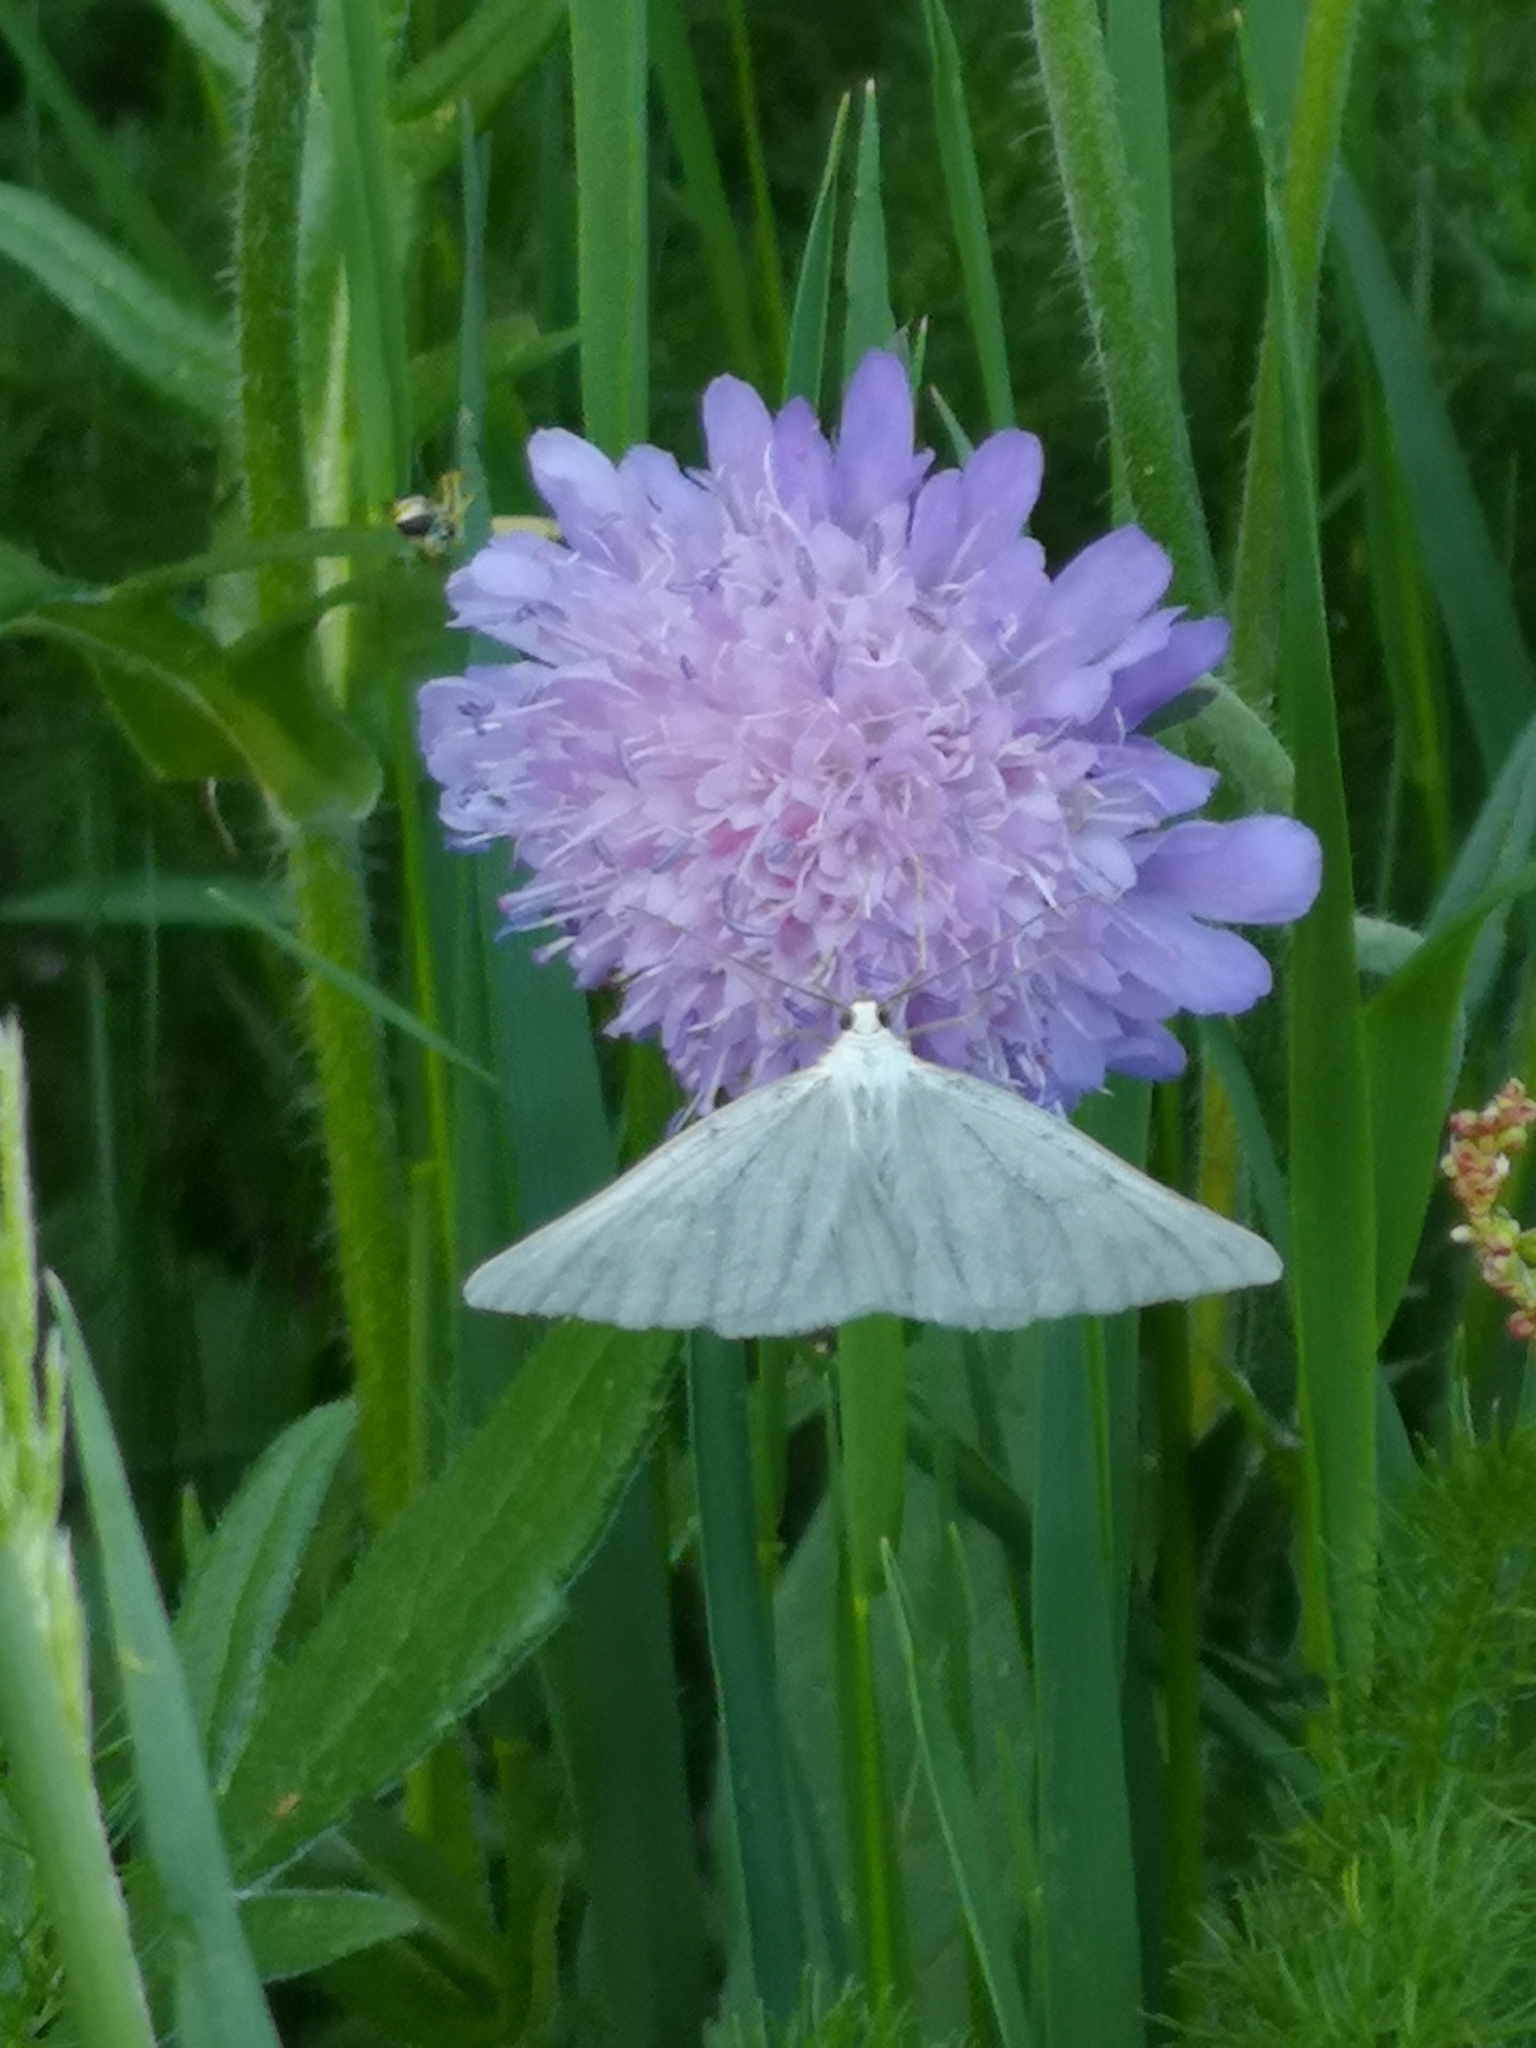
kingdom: Animalia
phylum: Arthropoda
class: Insecta
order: Lepidoptera
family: Geometridae
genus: Siona
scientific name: Siona lineata
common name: Black-veined moth
